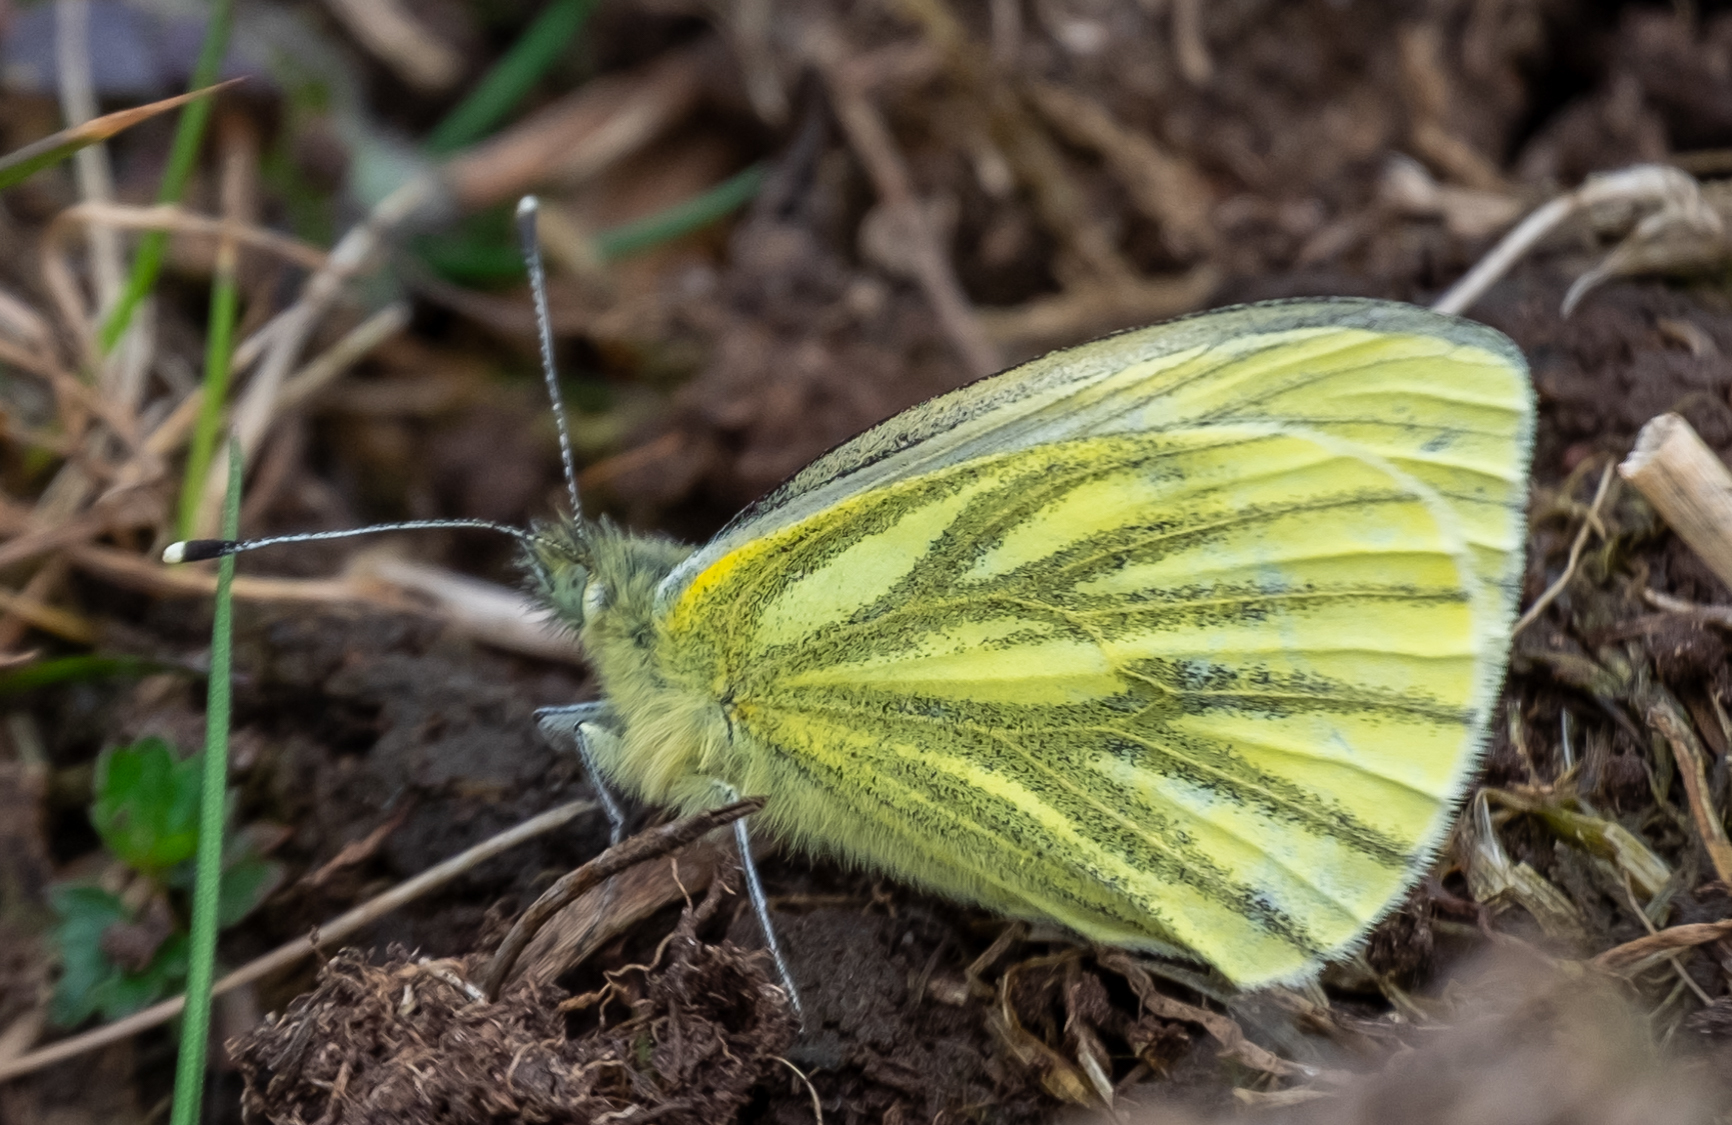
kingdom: Animalia
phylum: Arthropoda
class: Insecta
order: Lepidoptera
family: Pieridae
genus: Pieris
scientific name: Pieris napi
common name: Green-veined white
